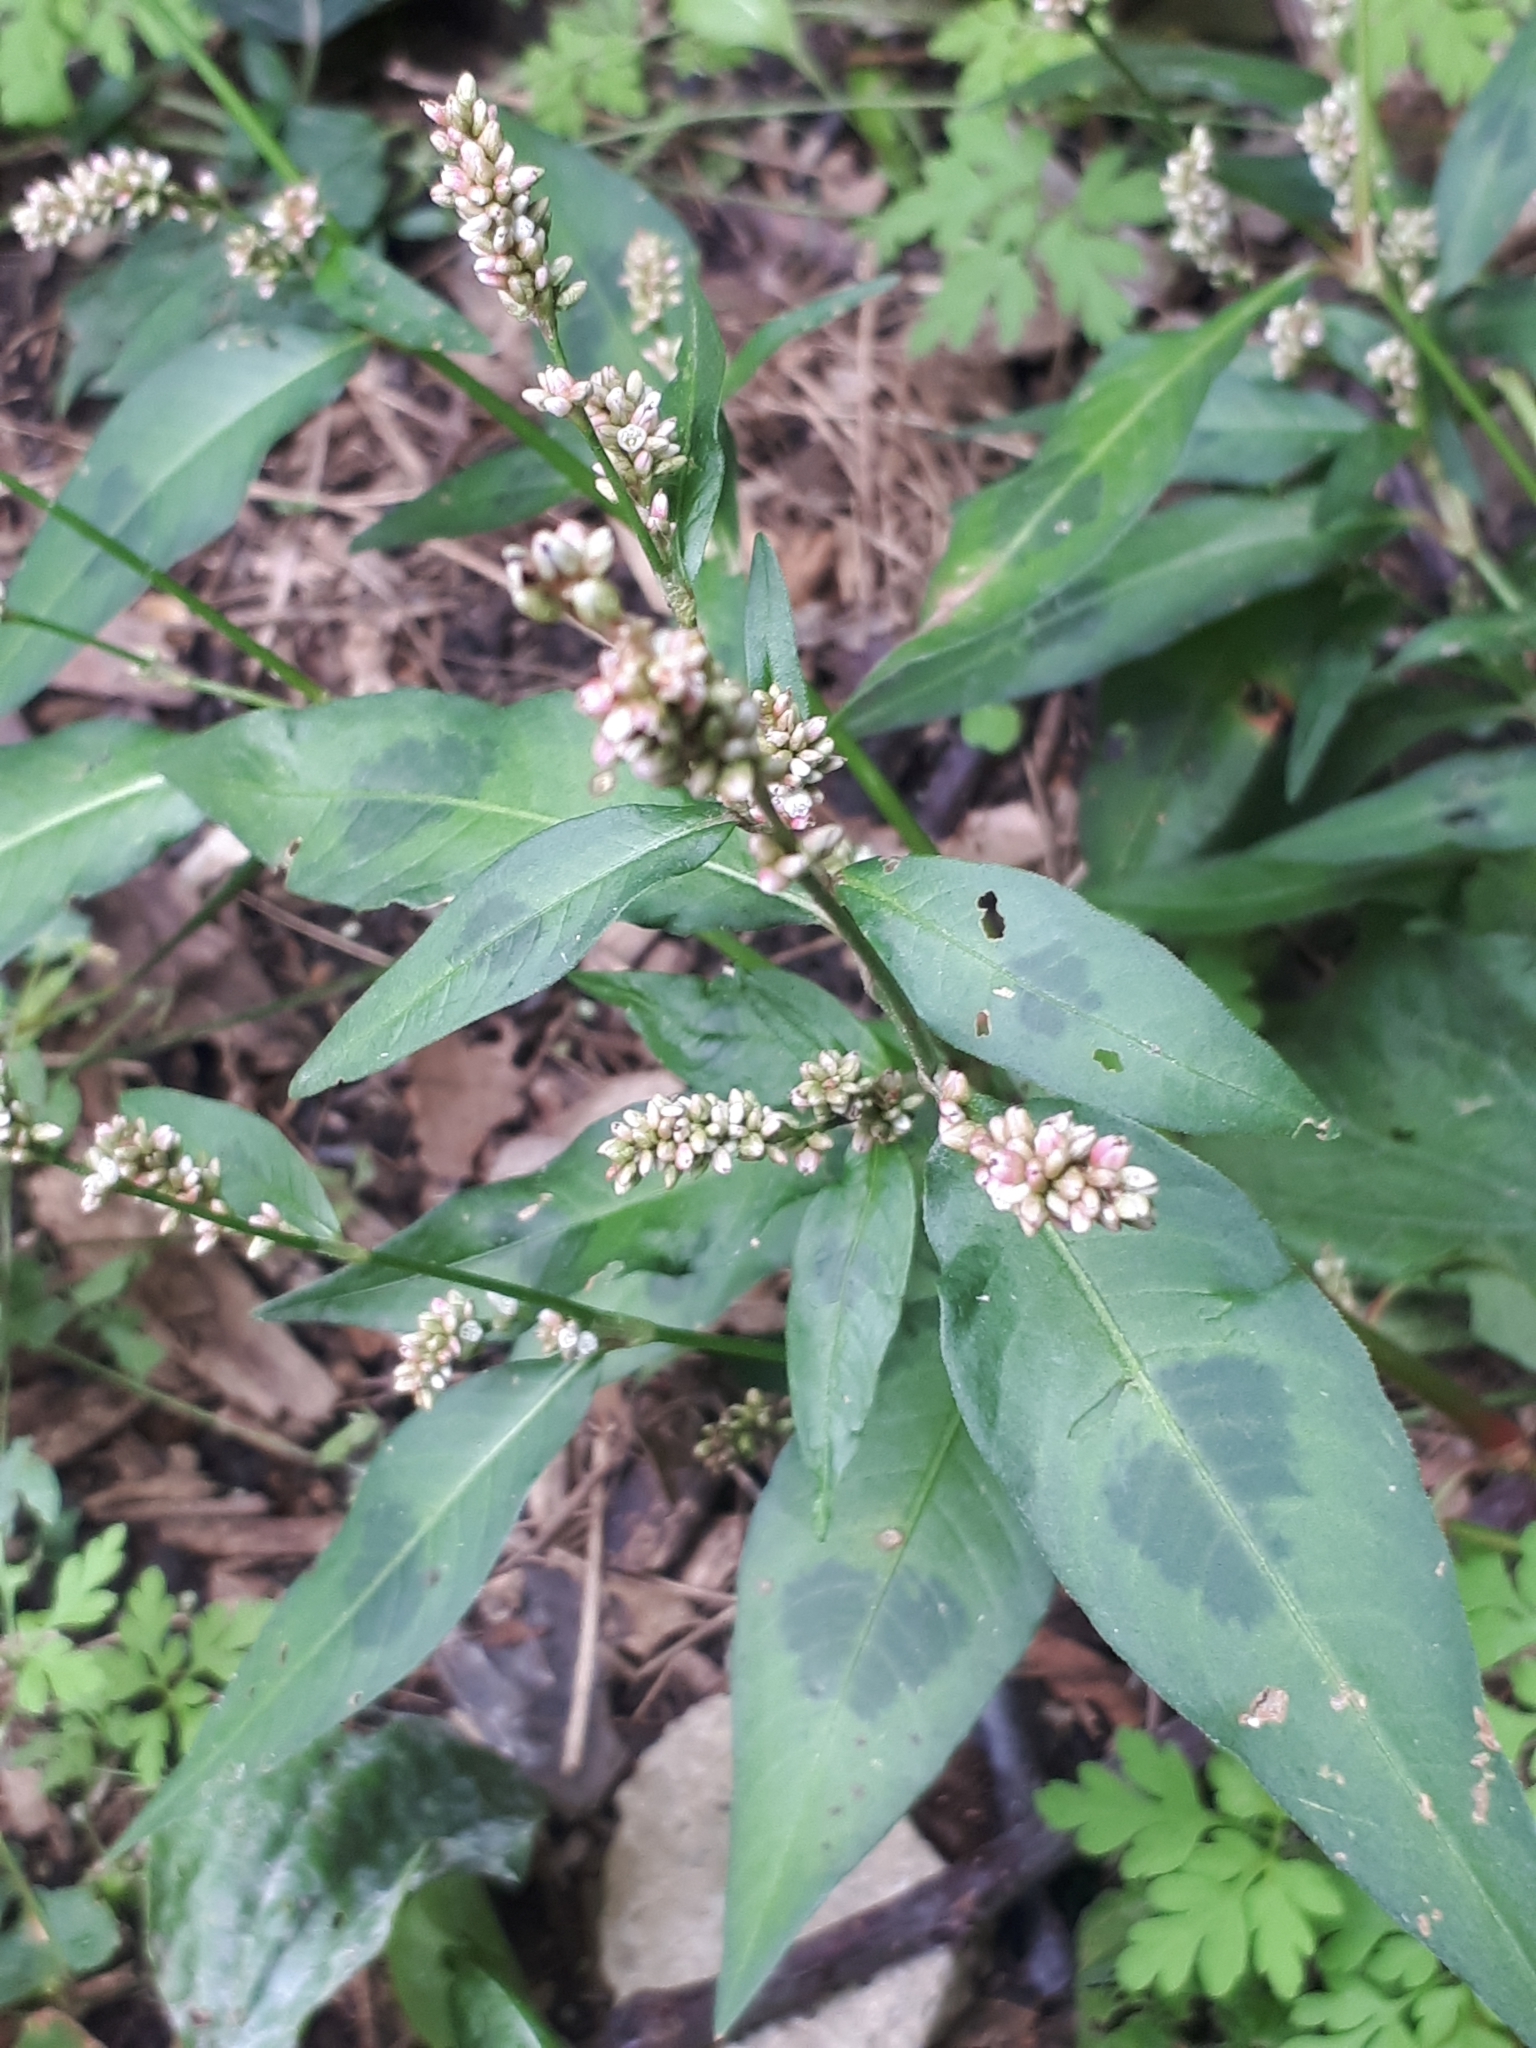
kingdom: Plantae
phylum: Tracheophyta
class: Magnoliopsida
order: Caryophyllales
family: Polygonaceae
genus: Persicaria
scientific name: Persicaria maculosa
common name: Redshank
